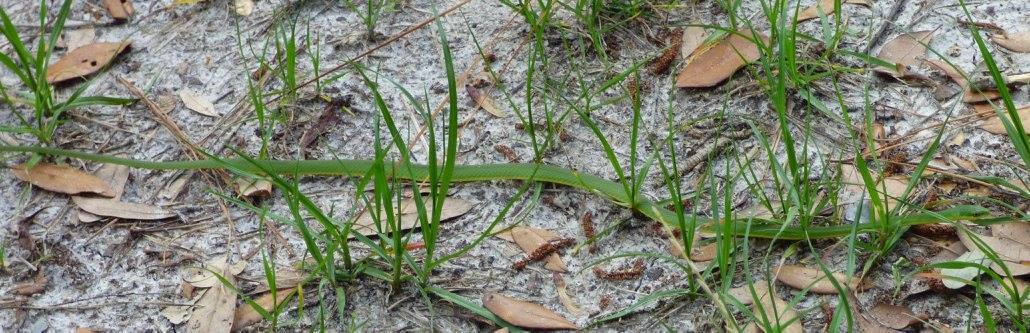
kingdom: Animalia
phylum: Chordata
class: Squamata
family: Colubridae
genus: Opheodrys
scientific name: Opheodrys aestivus
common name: Rough greensnake
